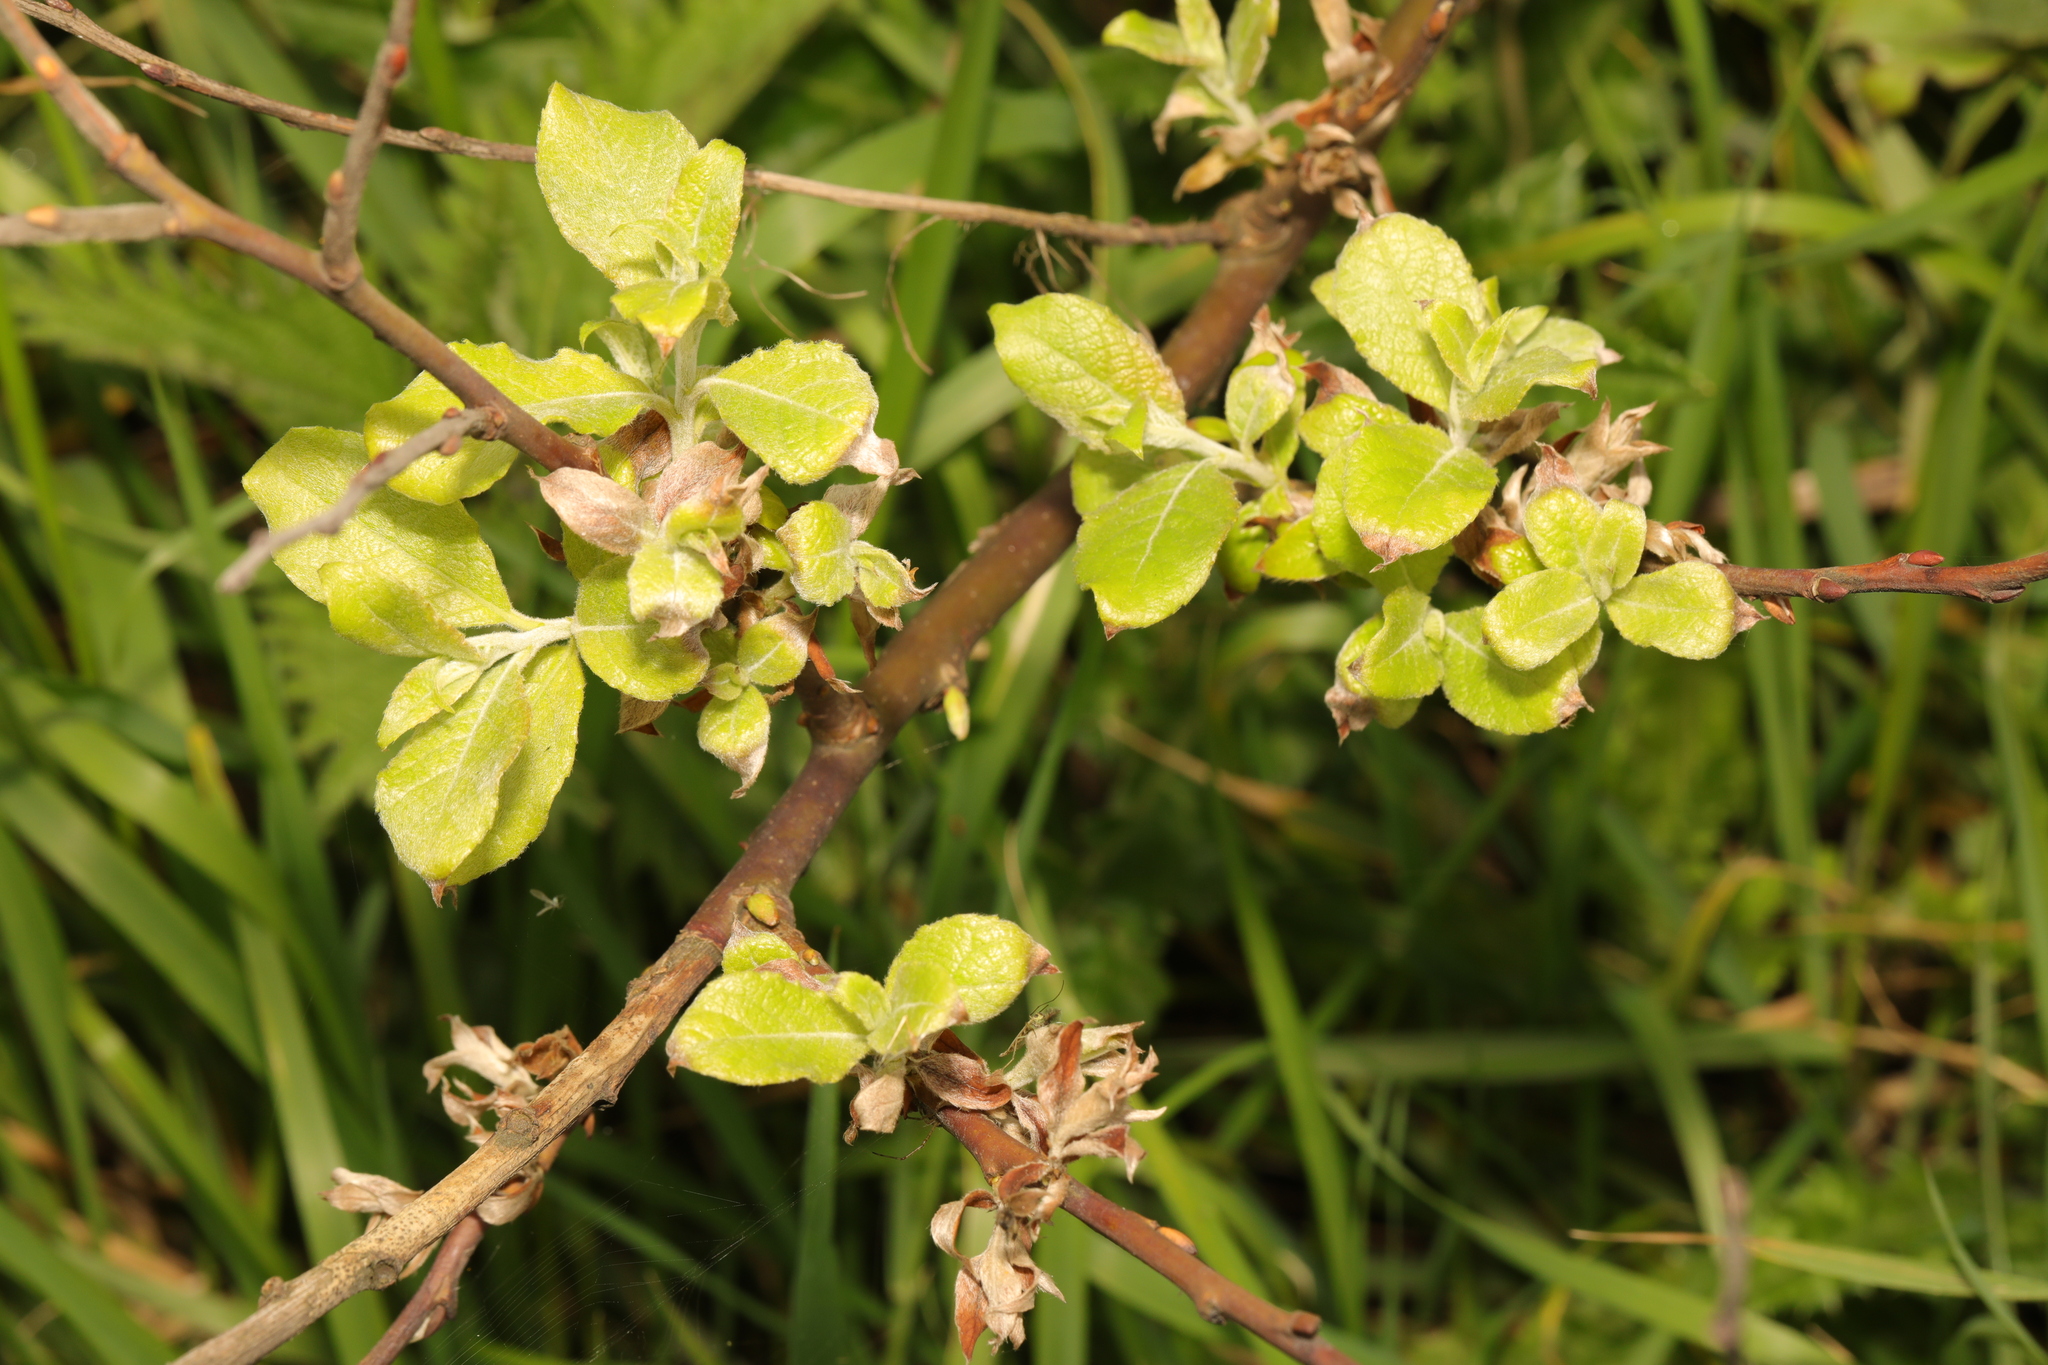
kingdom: Plantae
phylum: Tracheophyta
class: Magnoliopsida
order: Rosales
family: Rosaceae
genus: Malus
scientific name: Malus domestica
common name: Apple
